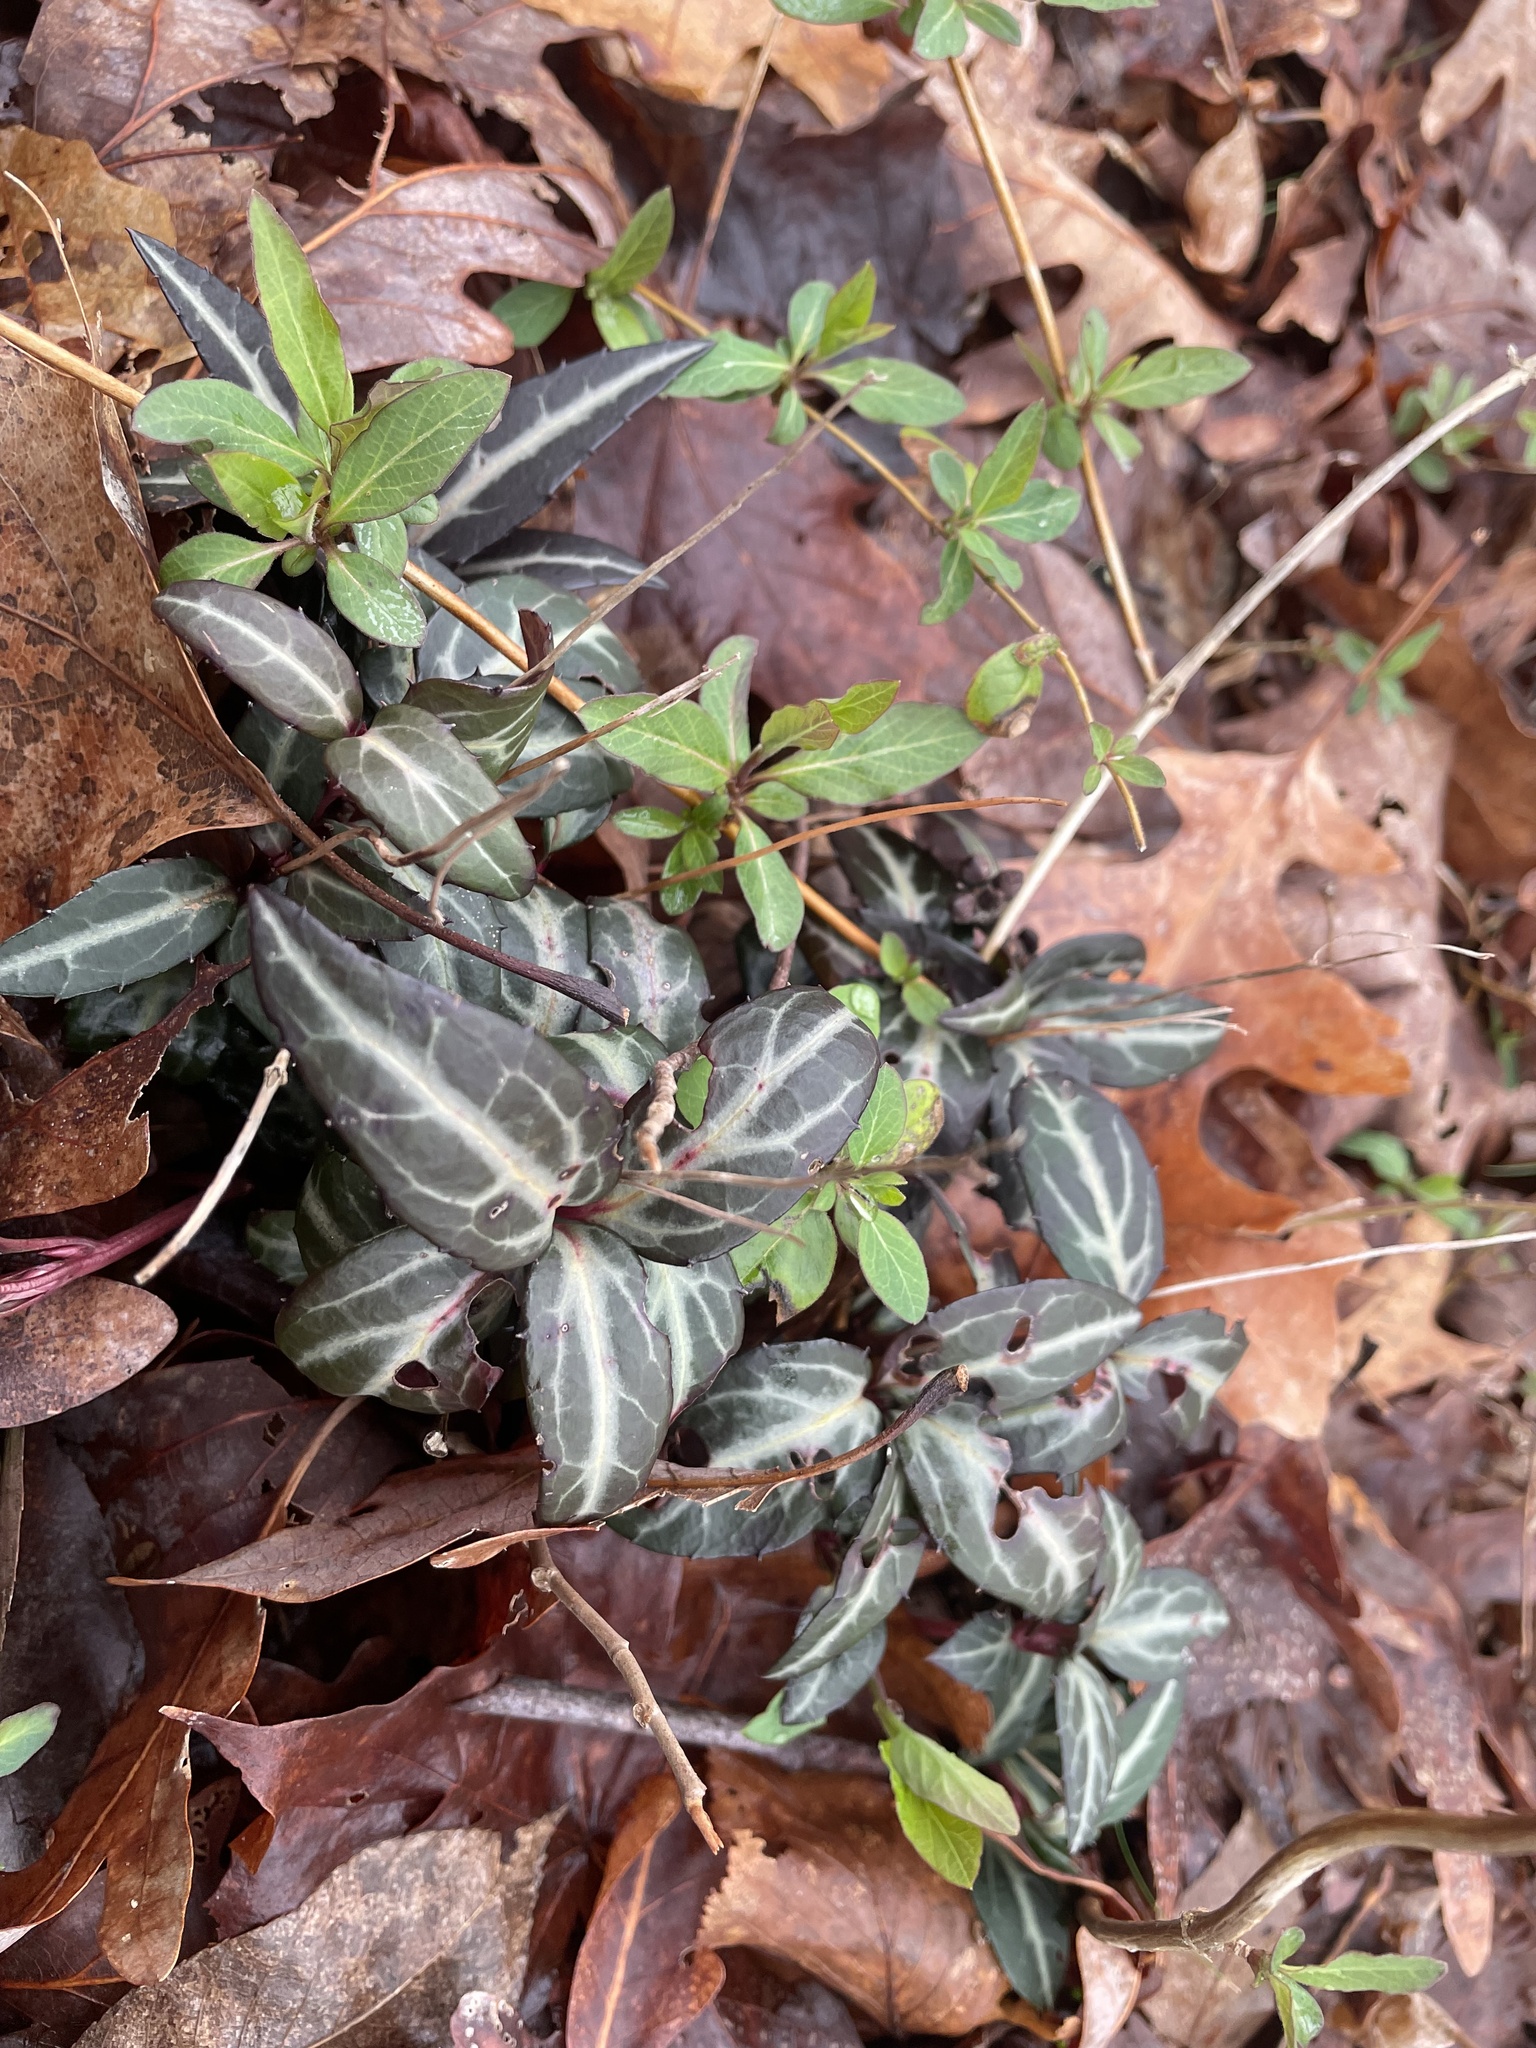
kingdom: Plantae
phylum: Tracheophyta
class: Magnoliopsida
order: Ericales
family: Ericaceae
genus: Chimaphila
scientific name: Chimaphila maculata
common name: Spotted pipsissewa
